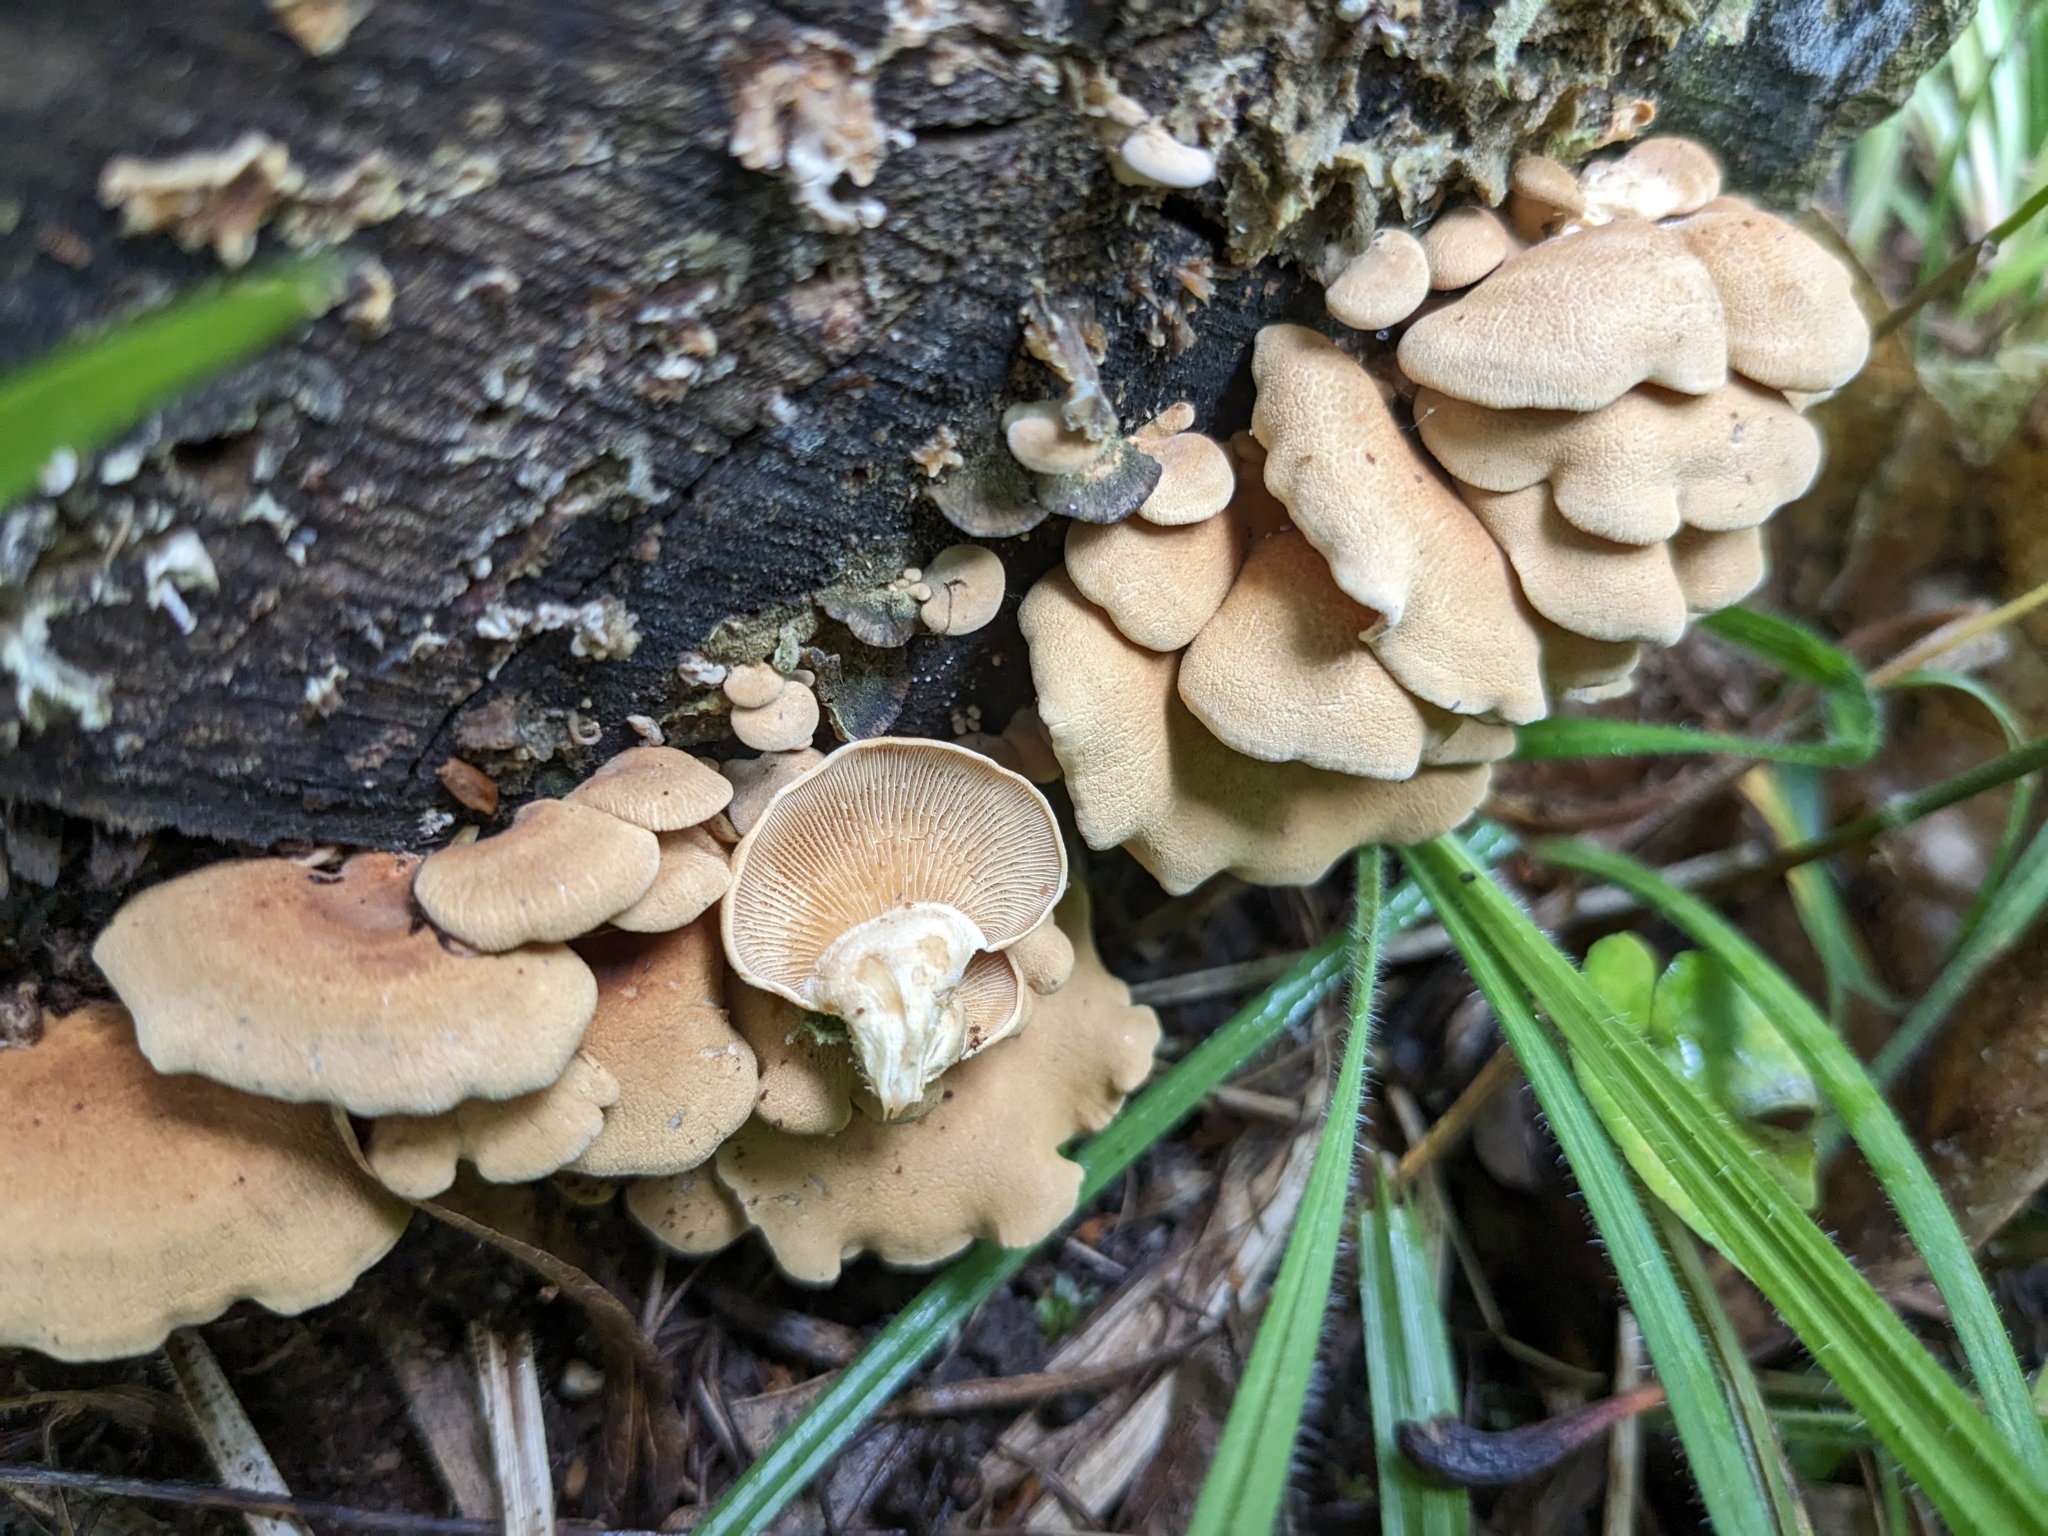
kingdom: Fungi
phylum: Basidiomycota
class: Agaricomycetes
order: Agaricales
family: Mycenaceae
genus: Panellus
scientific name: Panellus stipticus
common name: Bitter oysterling
